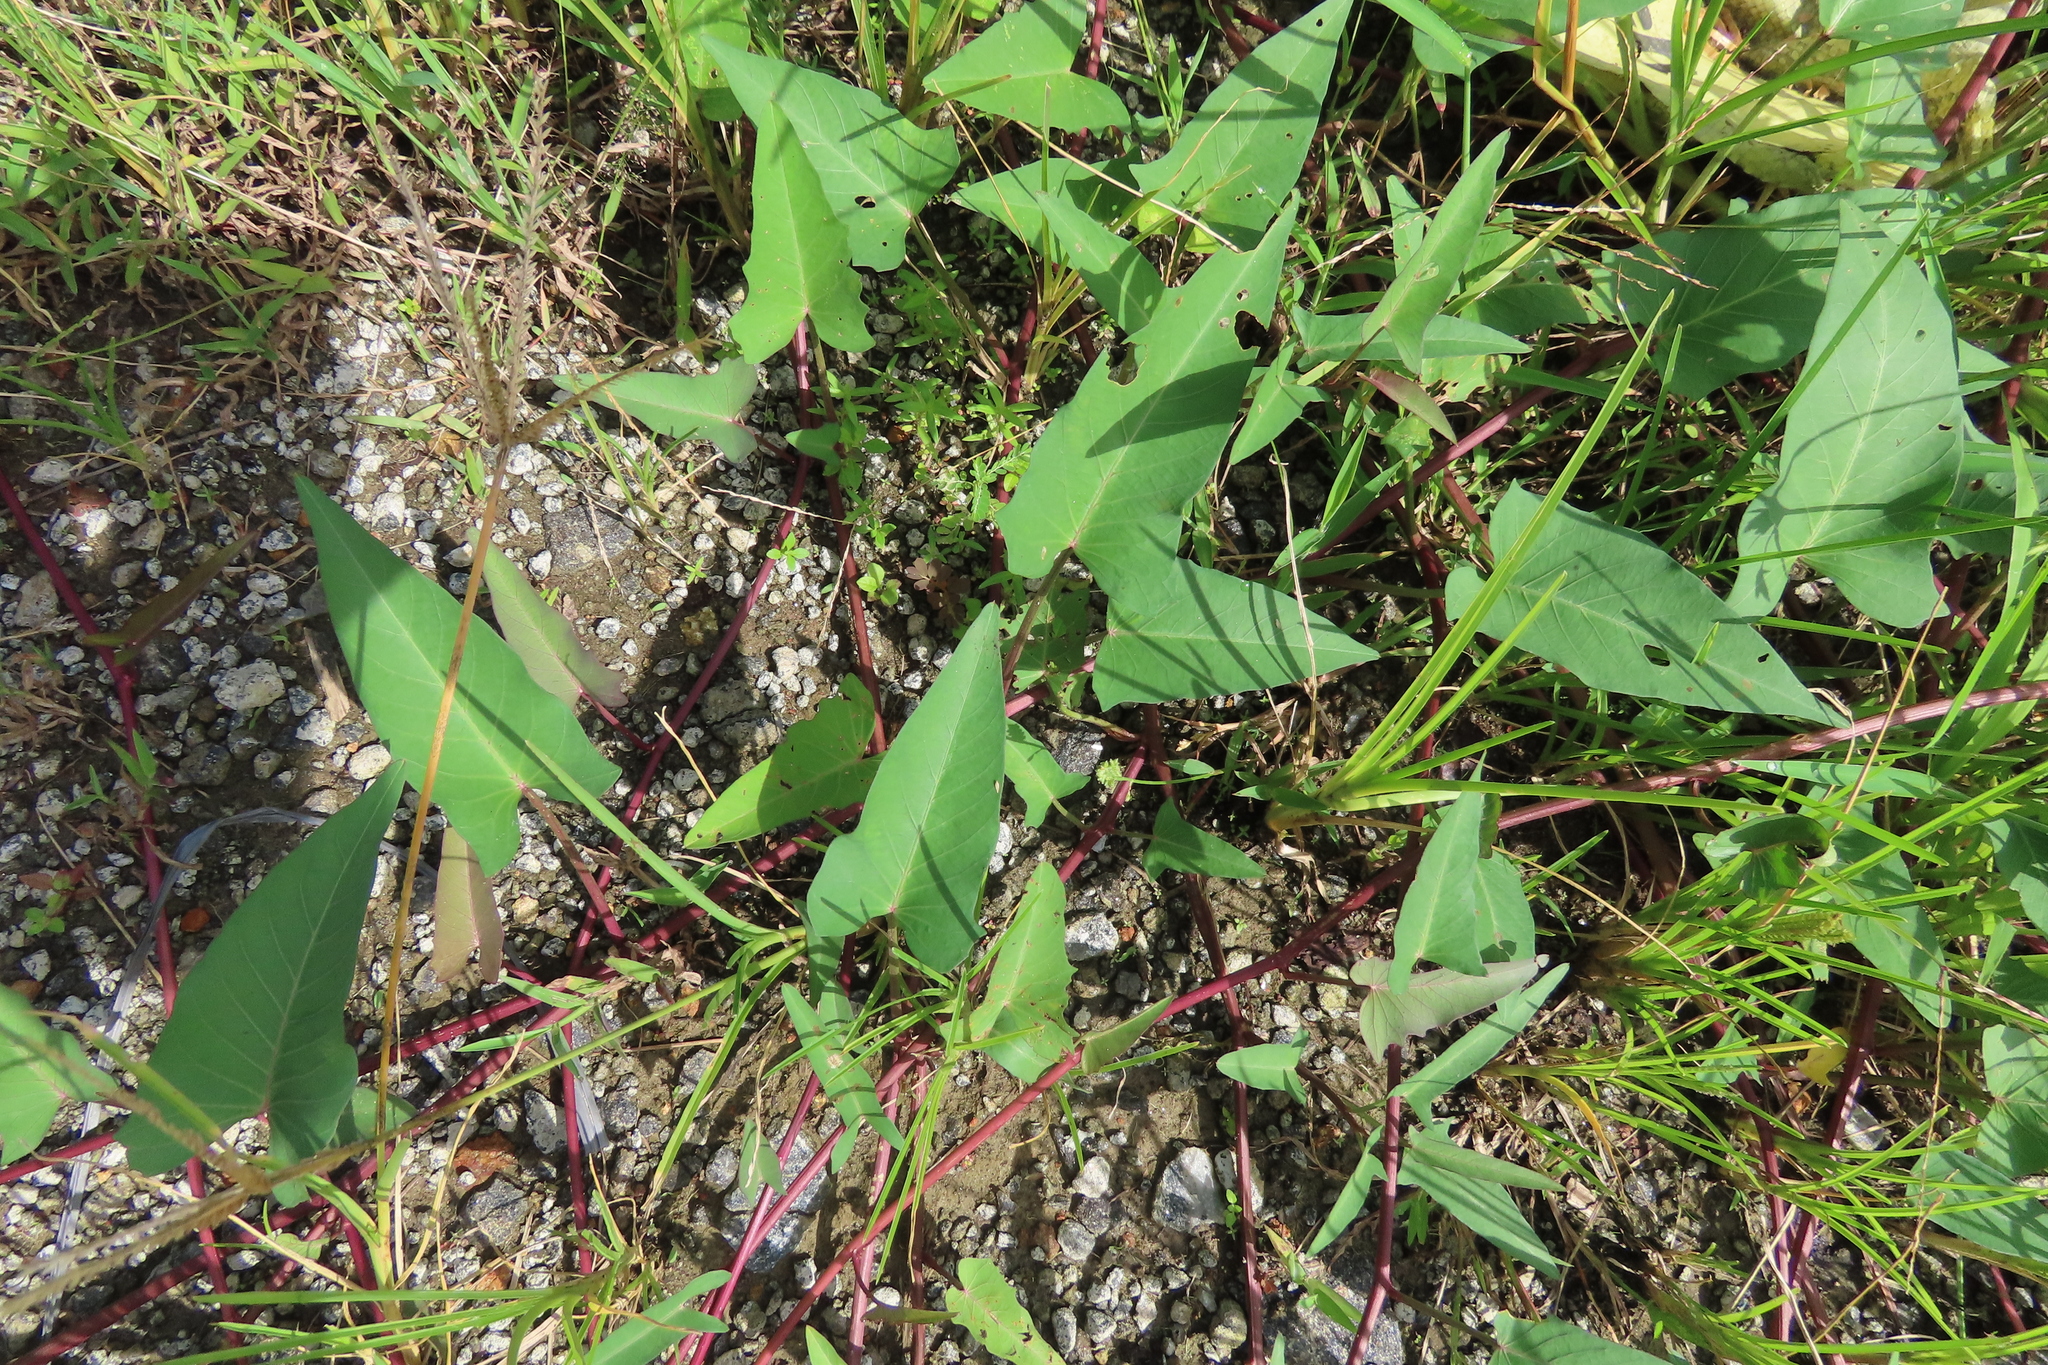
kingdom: Plantae
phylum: Tracheophyta
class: Magnoliopsida
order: Solanales
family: Convolvulaceae
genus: Ipomoea
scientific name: Ipomoea aquatica
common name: Swamp morning-glory
